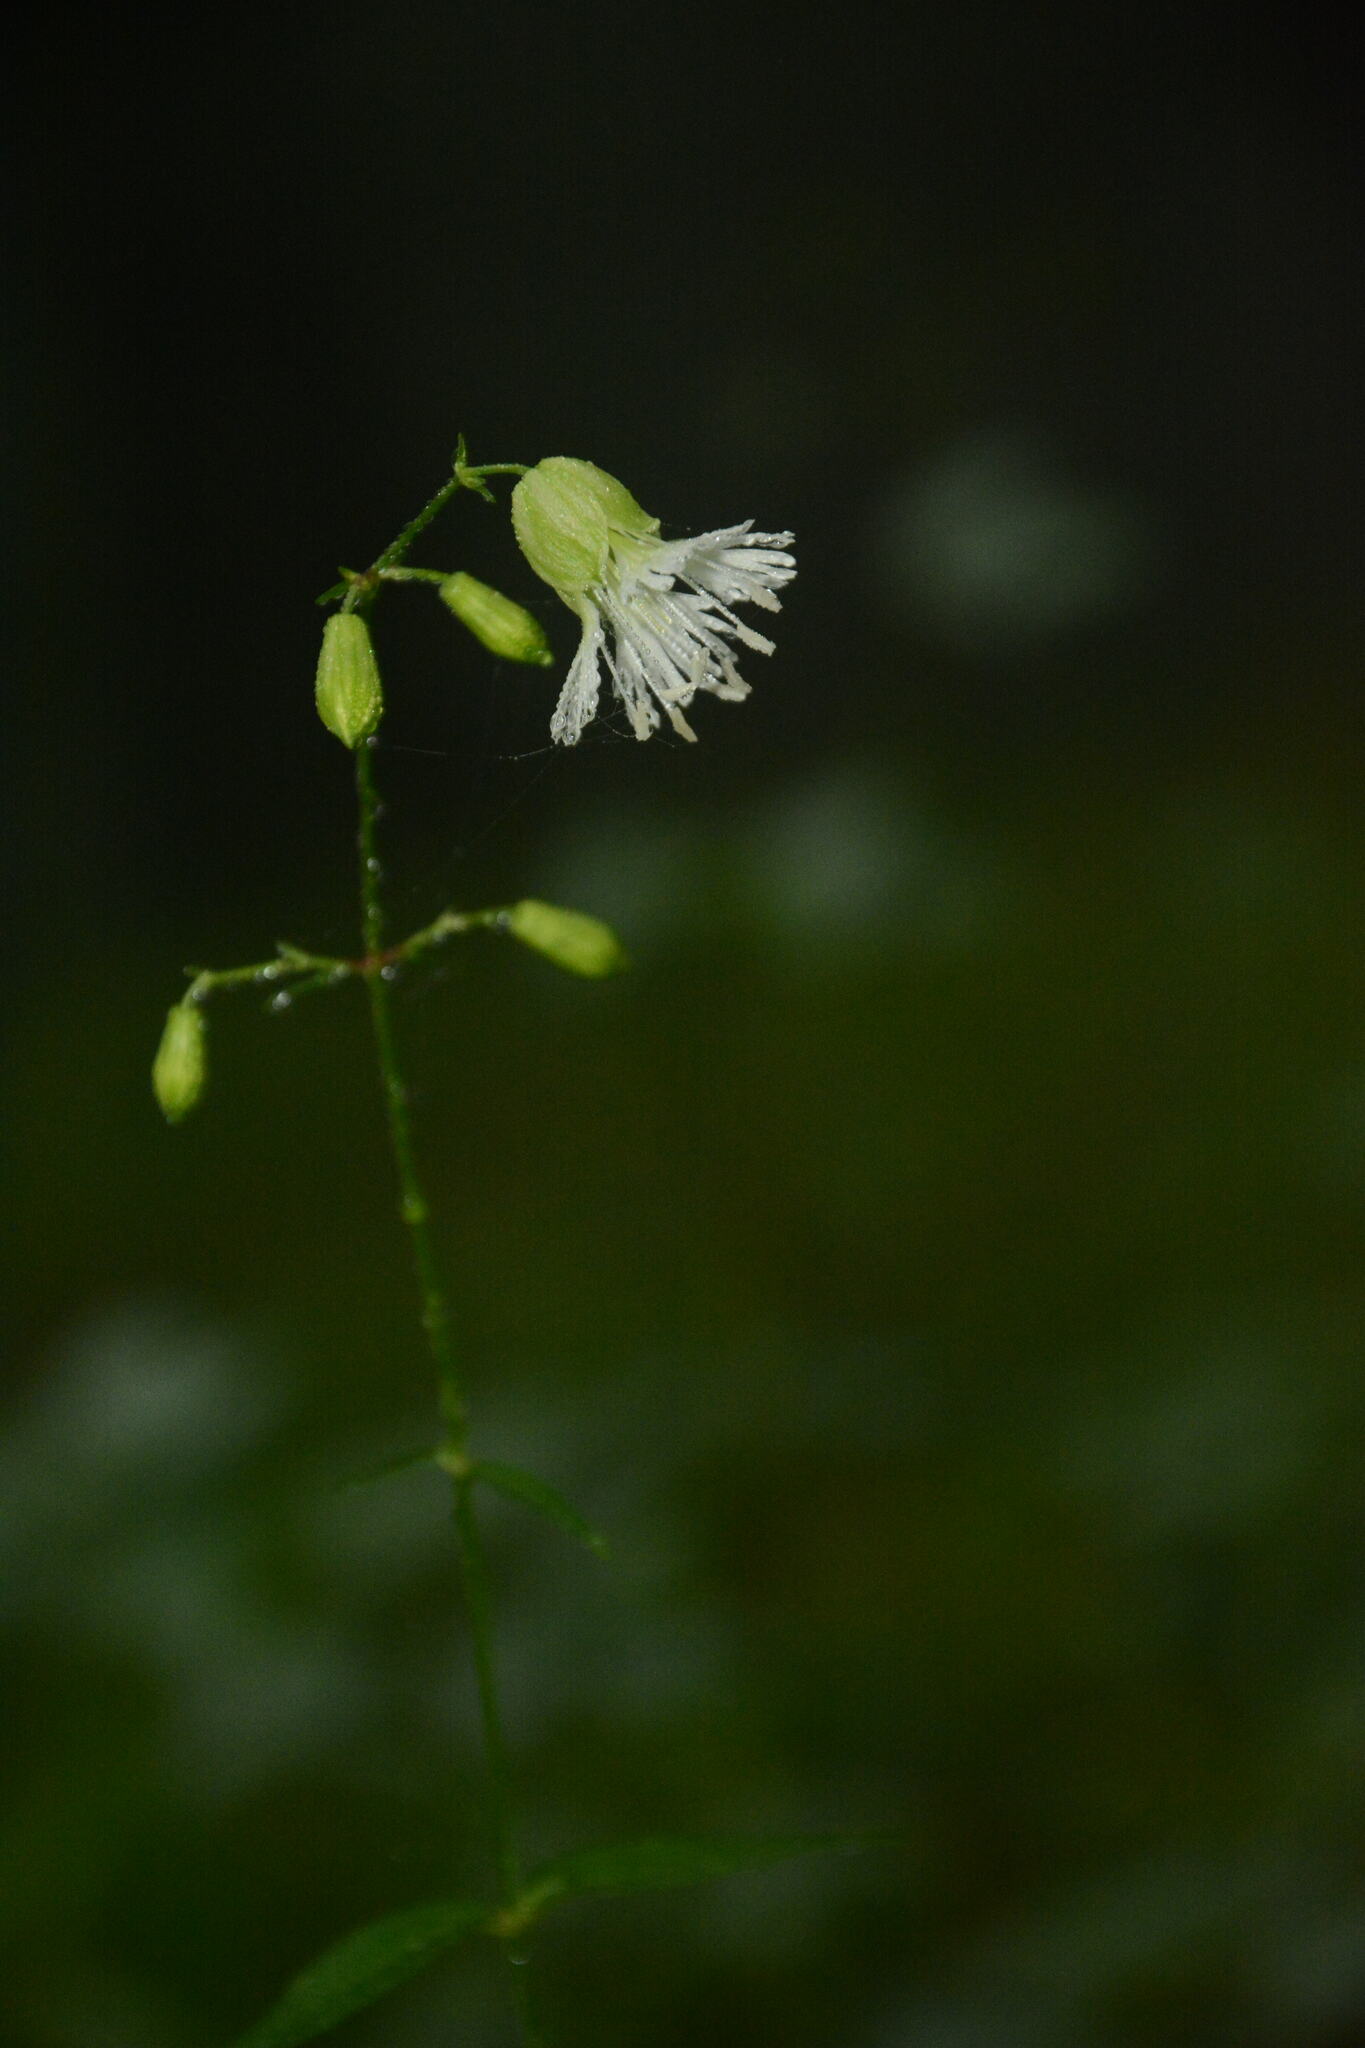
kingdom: Plantae
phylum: Tracheophyta
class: Magnoliopsida
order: Caryophyllales
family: Caryophyllaceae
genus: Silene
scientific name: Silene stellata
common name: Starry campion
